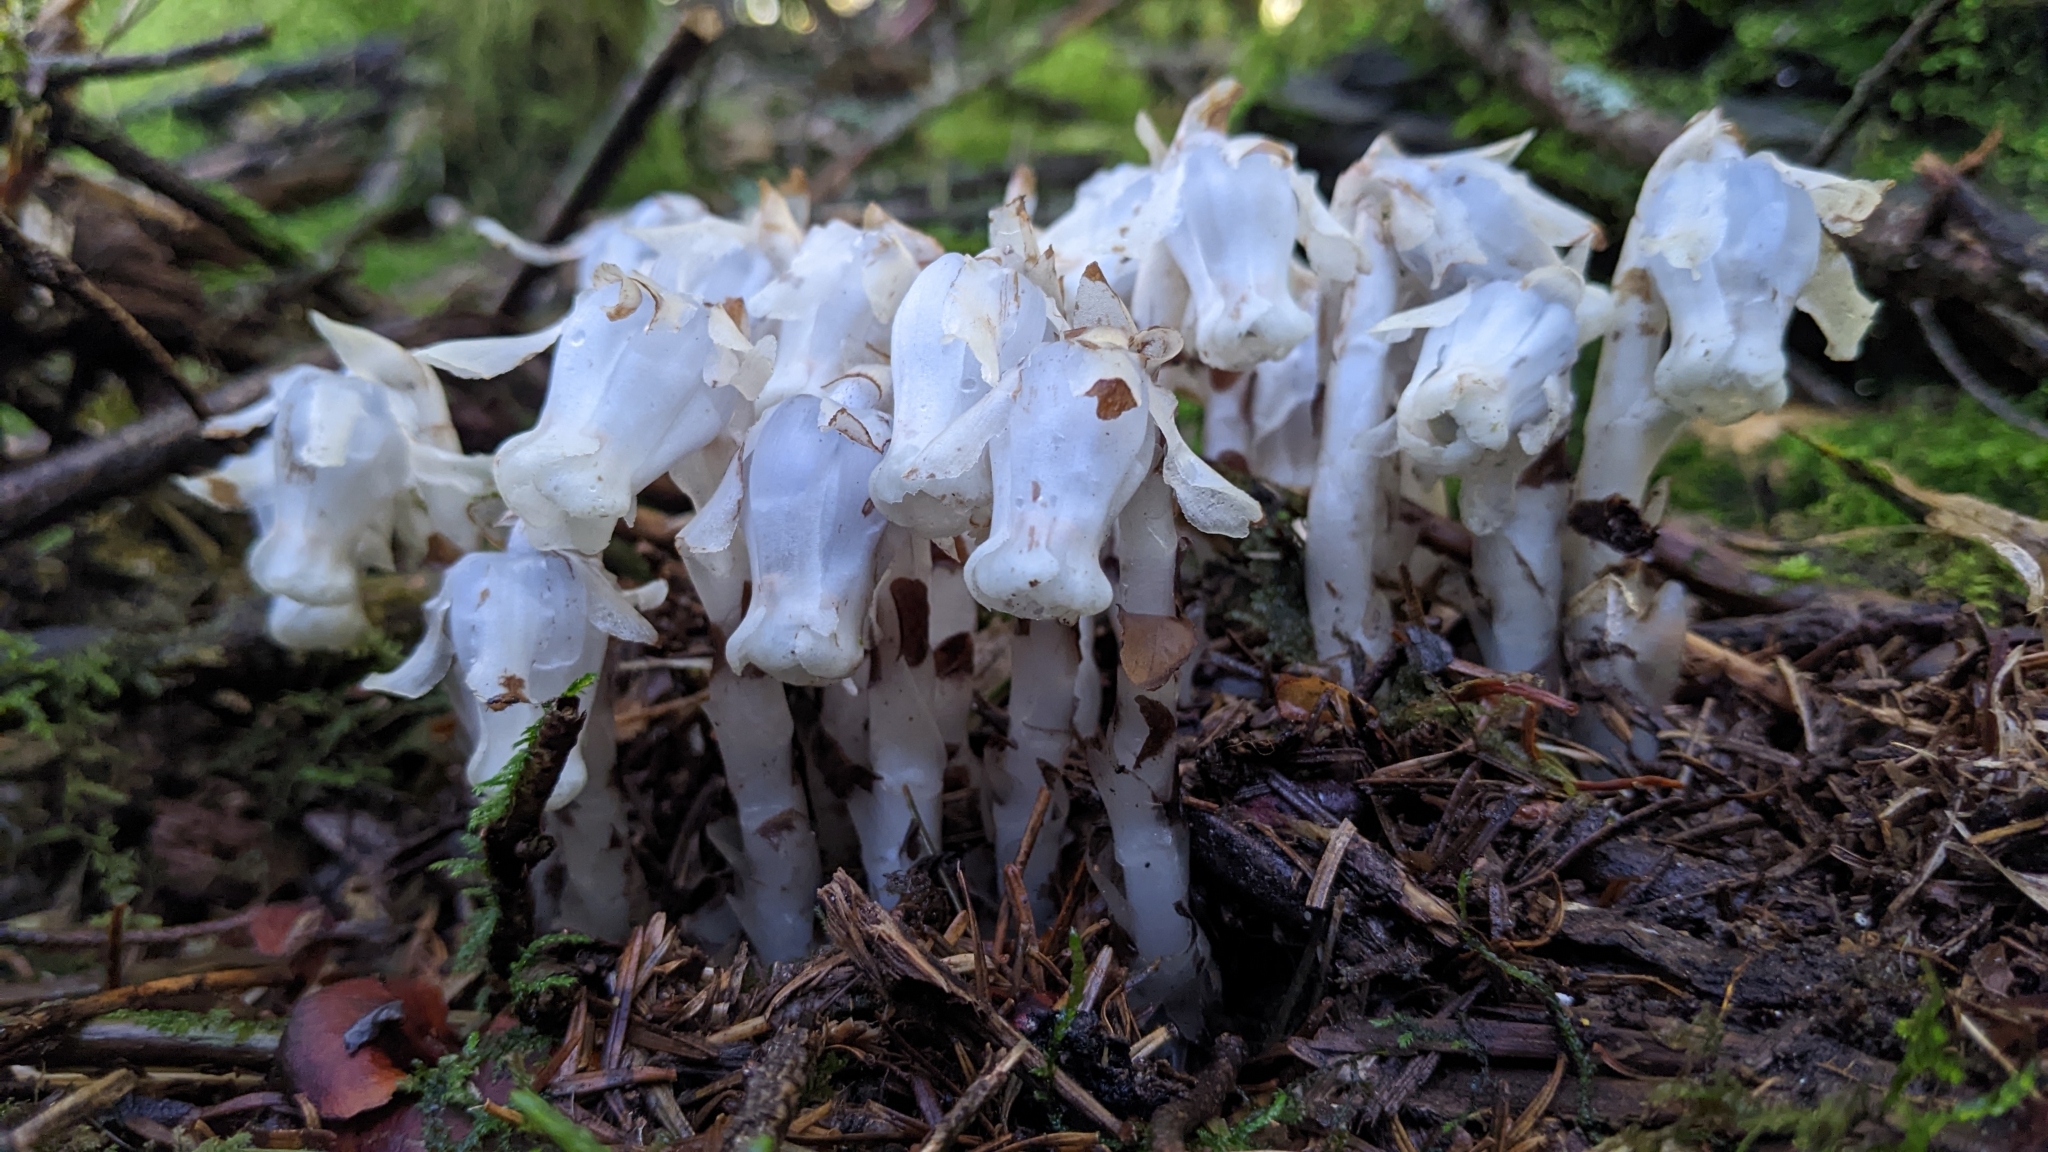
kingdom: Plantae
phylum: Tracheophyta
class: Magnoliopsida
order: Ericales
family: Ericaceae
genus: Monotropastrum
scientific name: Monotropastrum humile
